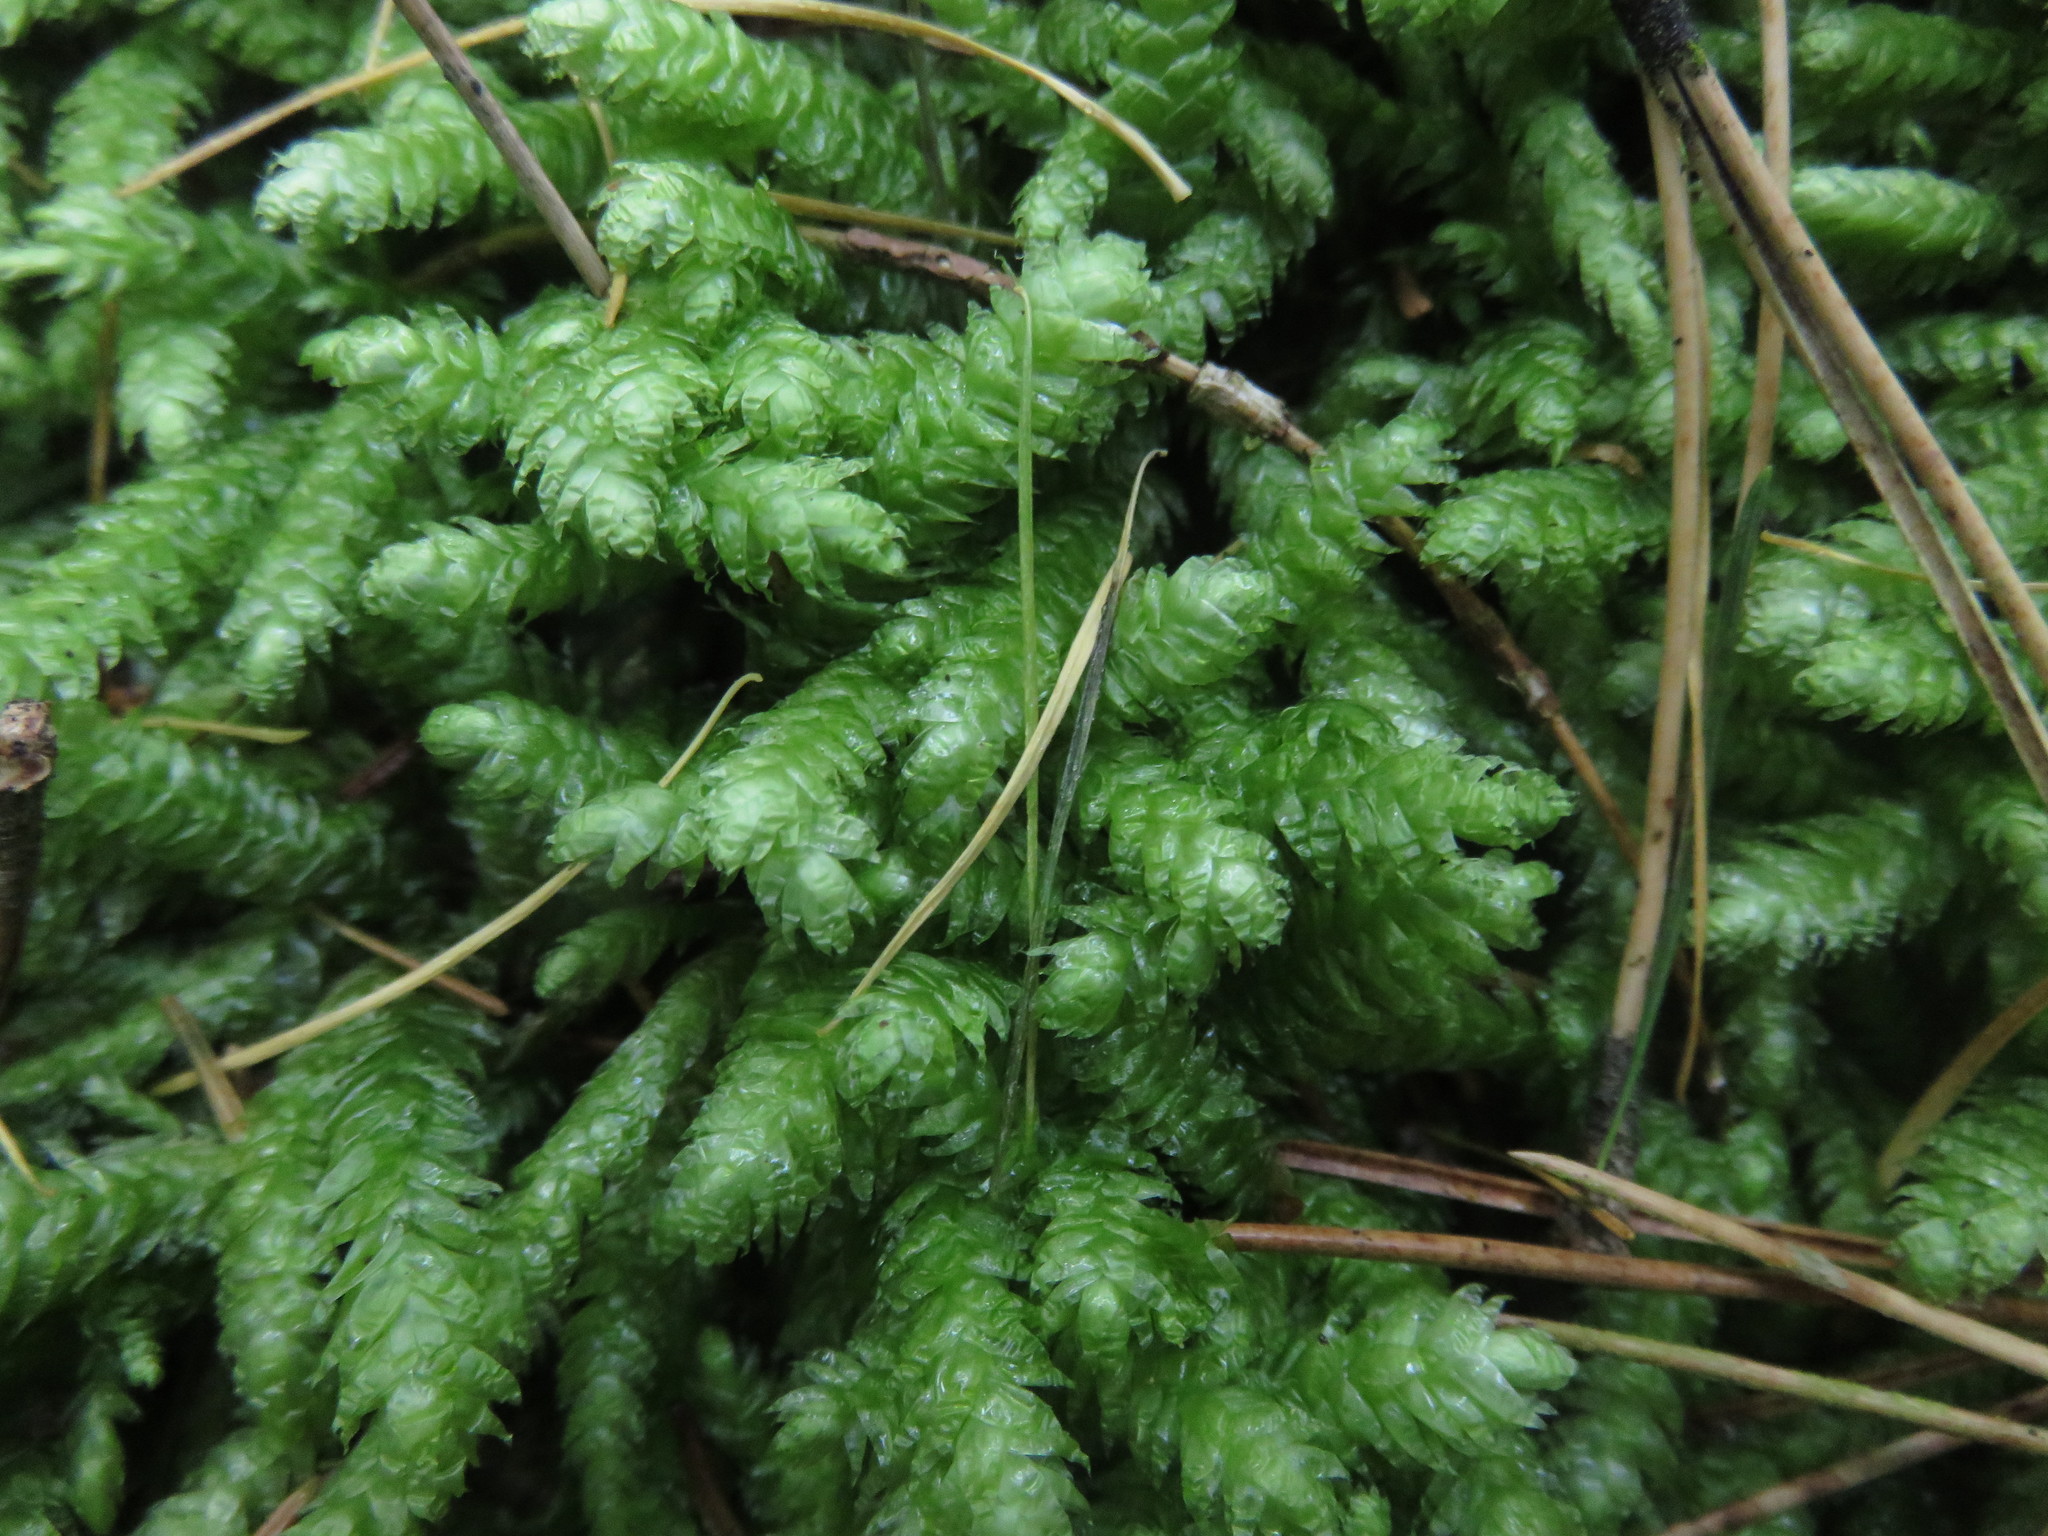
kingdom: Plantae
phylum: Bryophyta
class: Bryopsida
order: Hypnales
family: Plagiotheciaceae
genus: Plagiothecium
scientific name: Plagiothecium undulatum
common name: Waved silk-moss
